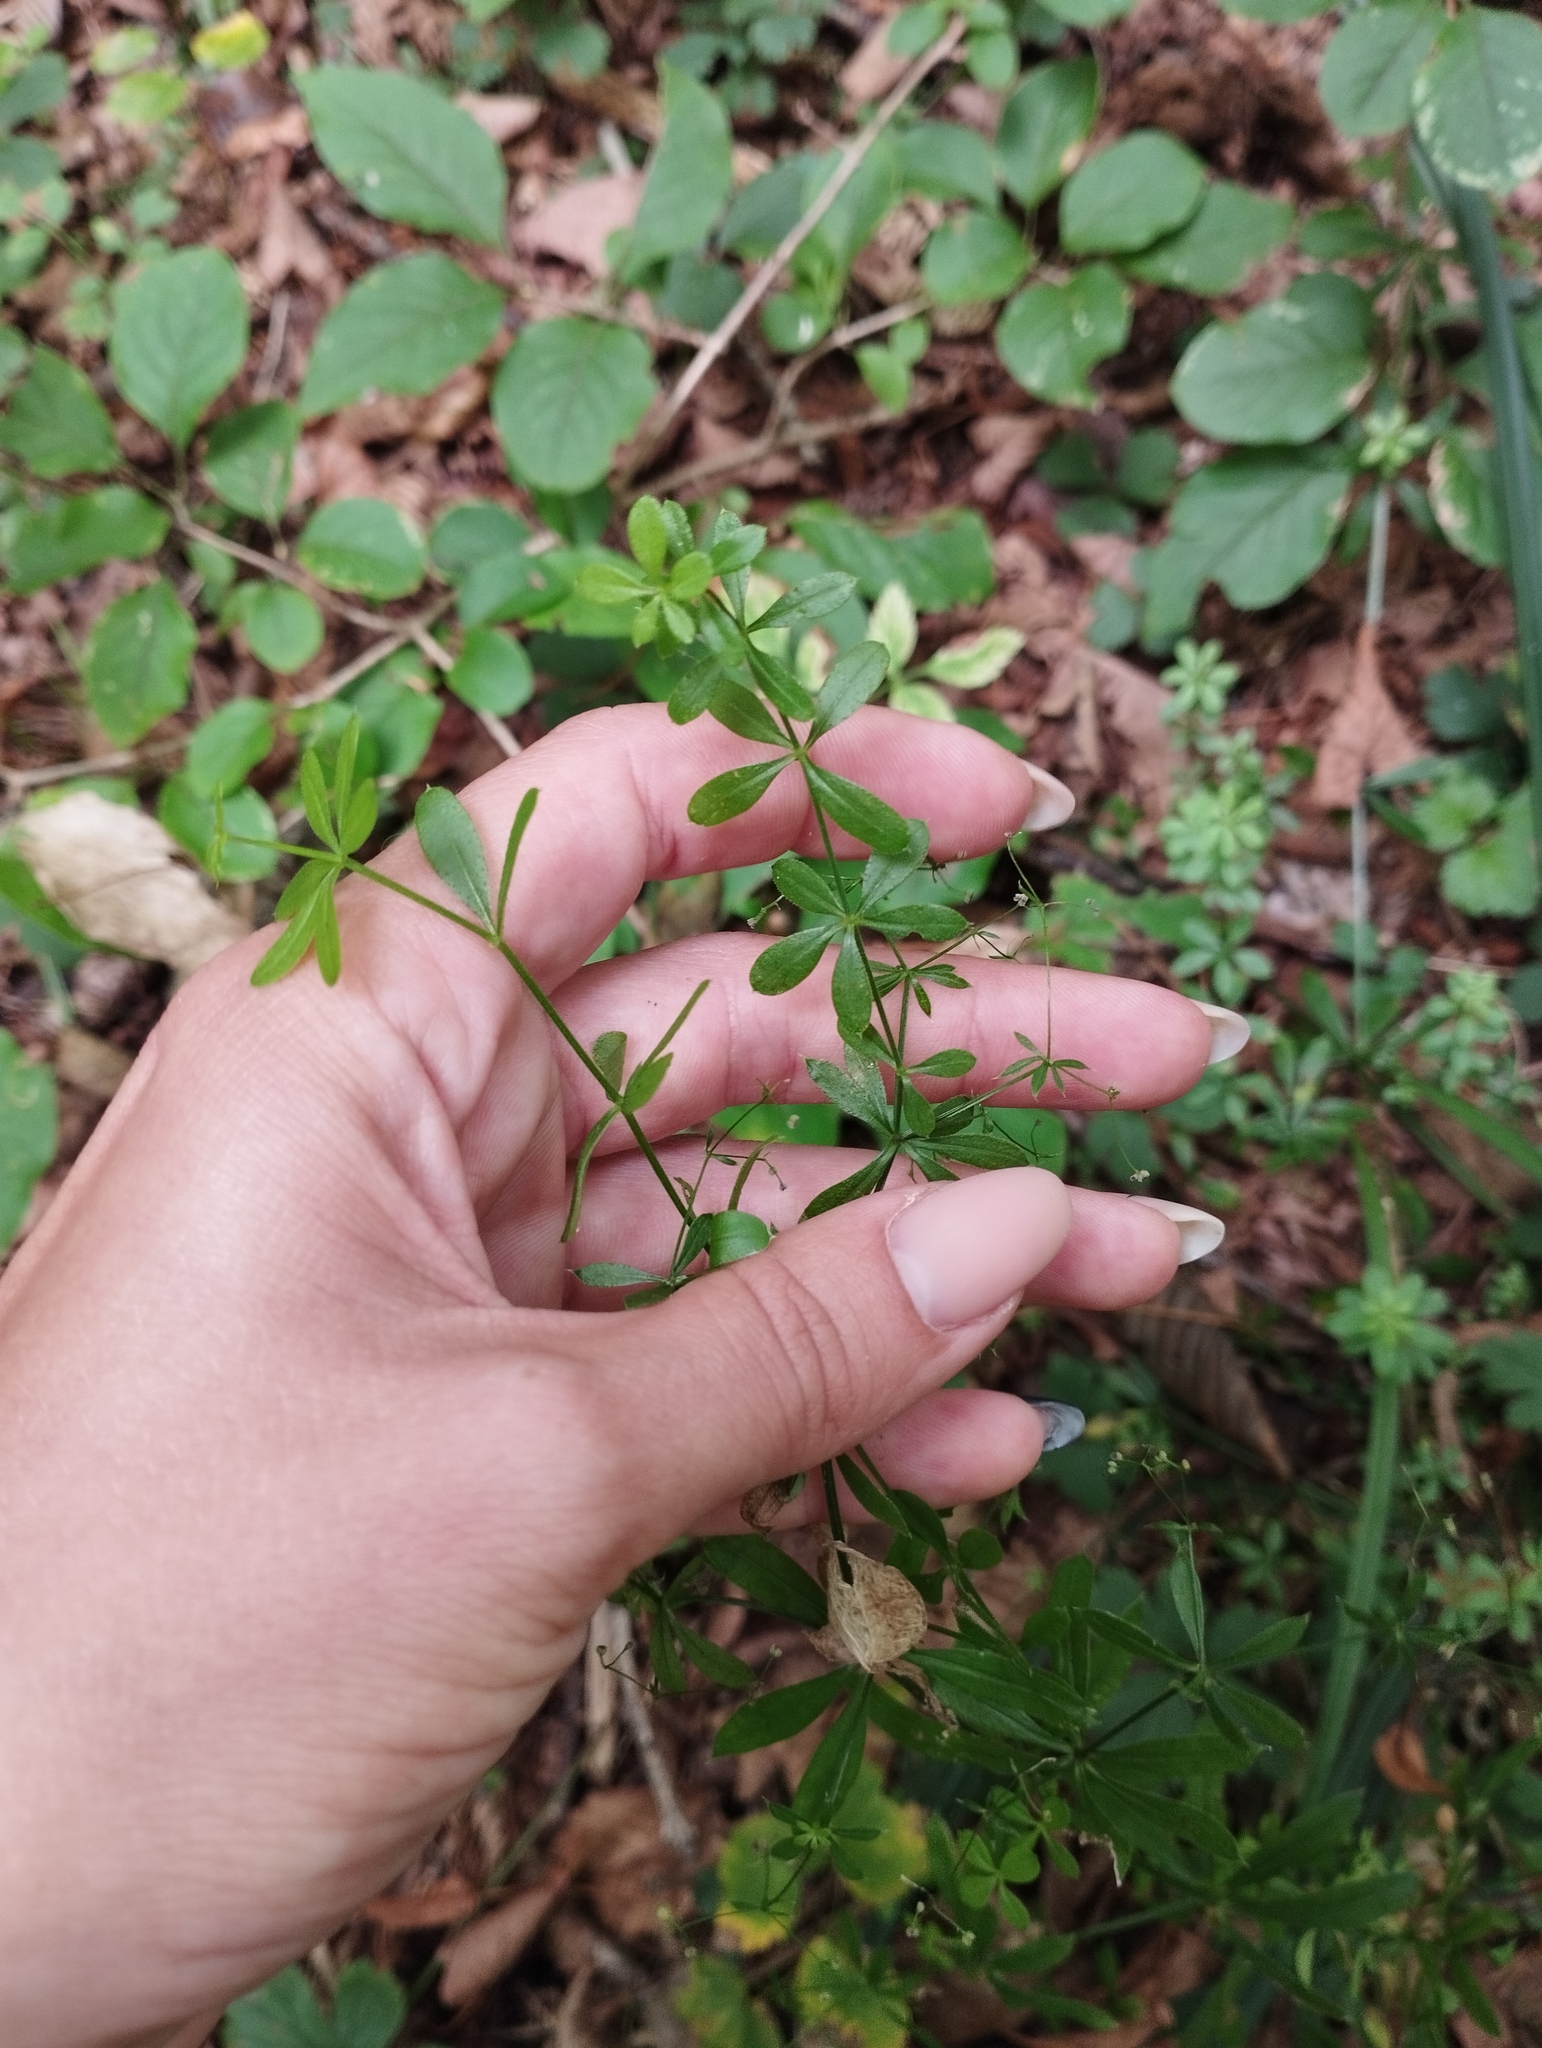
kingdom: Plantae
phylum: Tracheophyta
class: Magnoliopsida
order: Gentianales
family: Rubiaceae
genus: Galium
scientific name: Galium dahuricum
